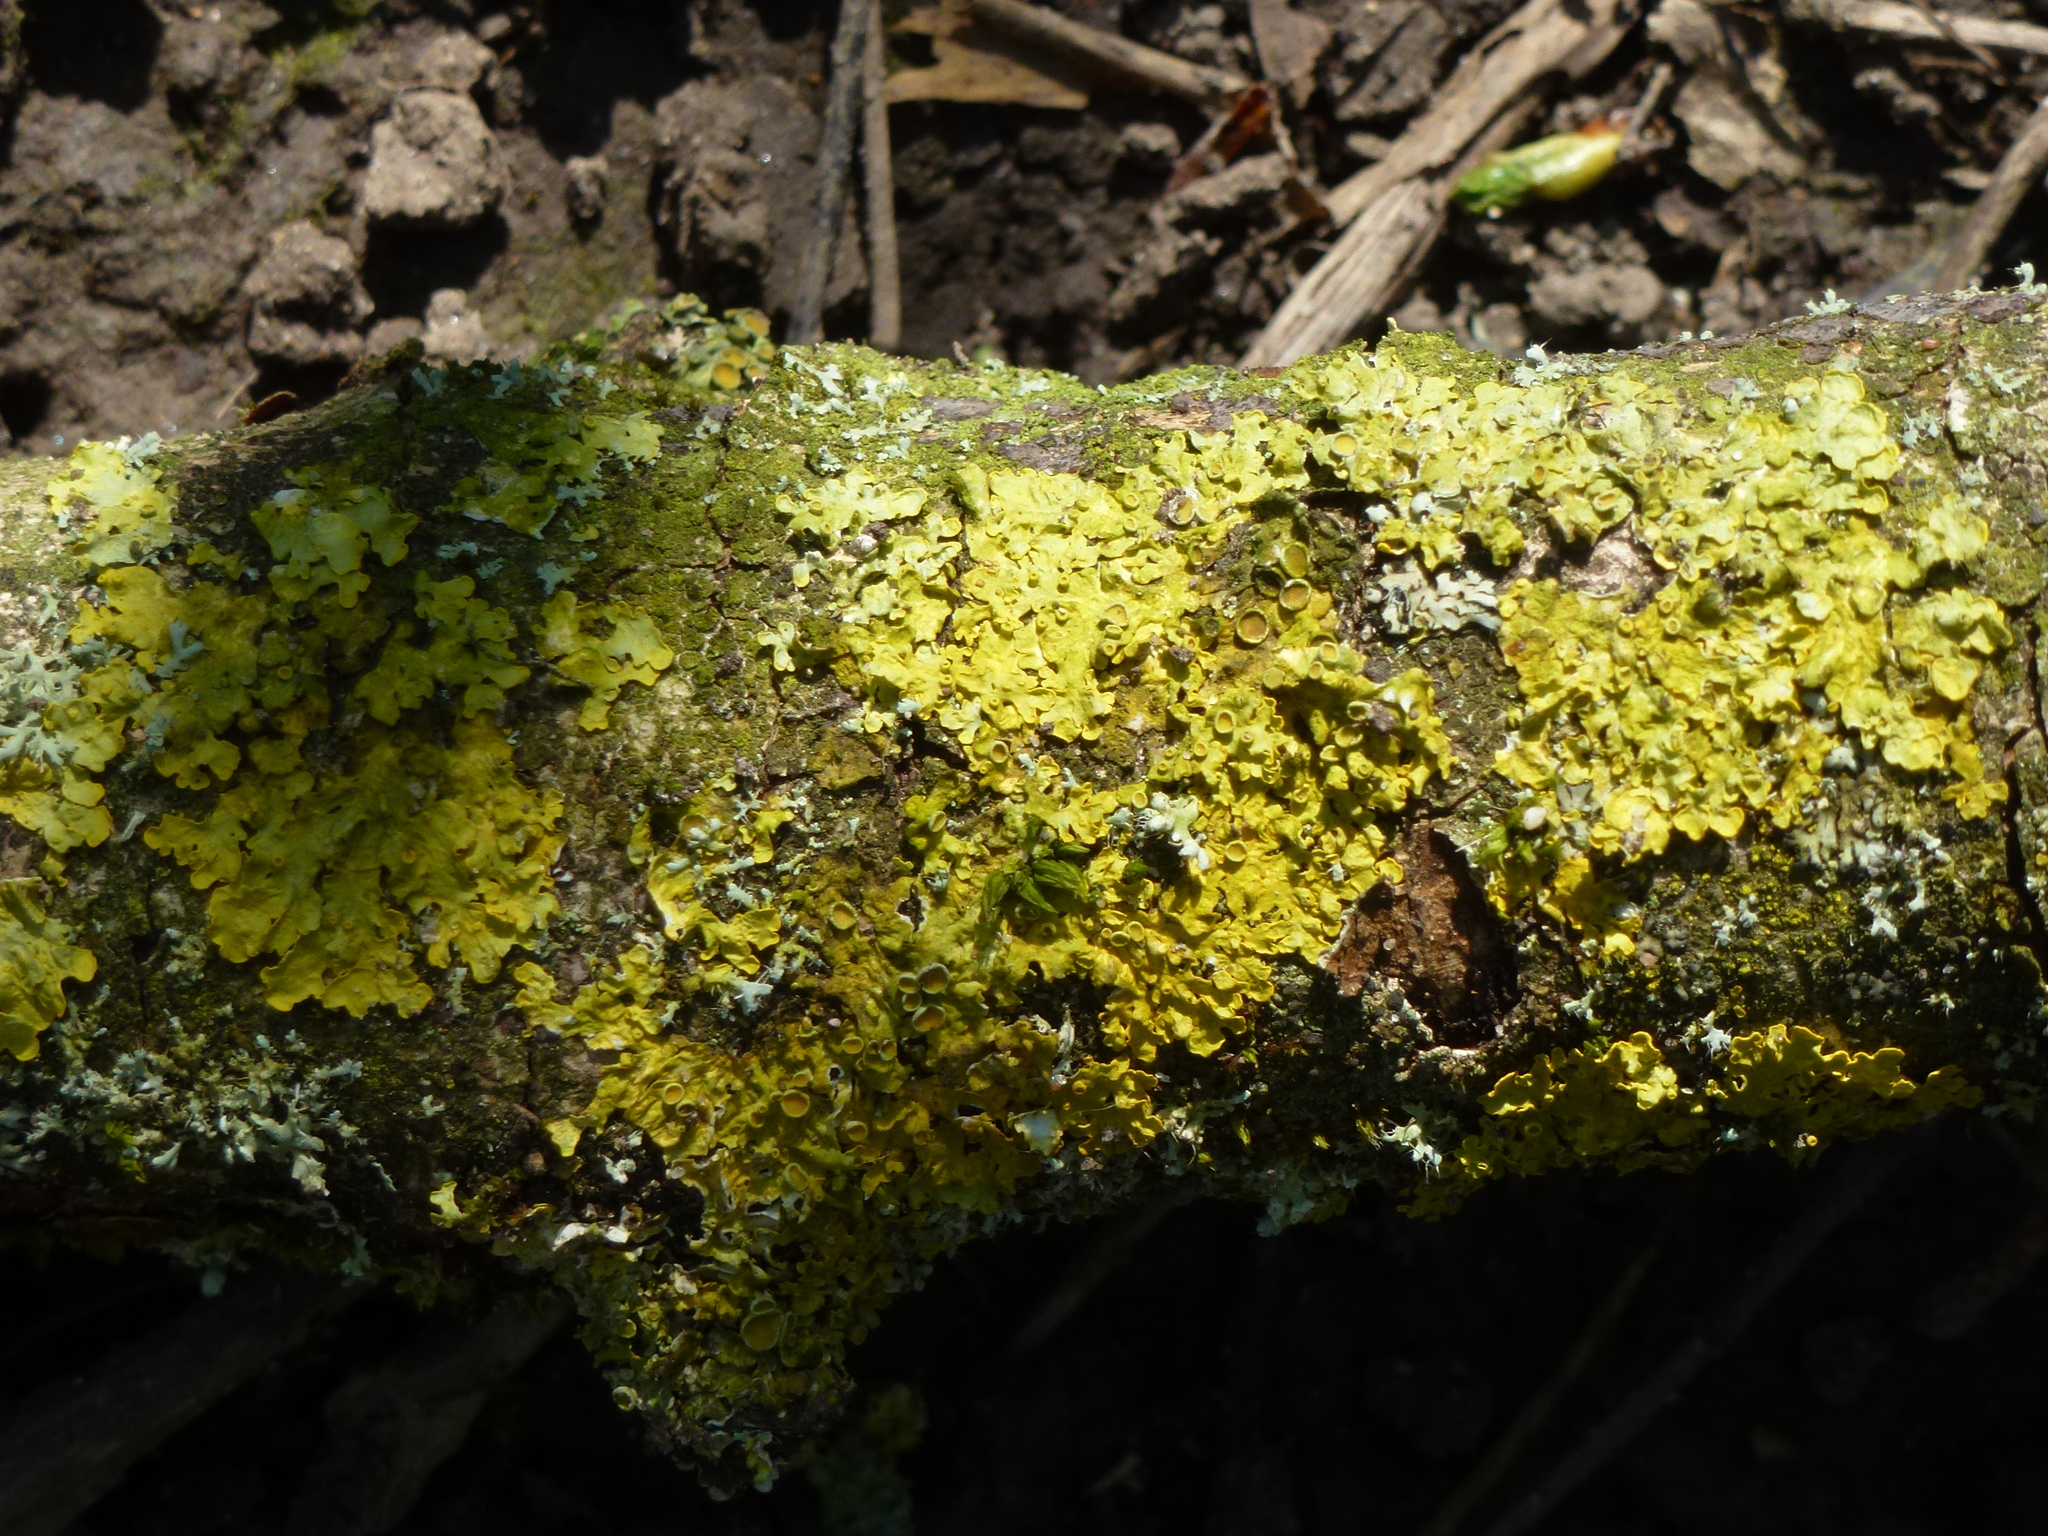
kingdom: Fungi
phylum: Ascomycota
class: Lecanoromycetes
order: Teloschistales
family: Teloschistaceae
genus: Xanthoria
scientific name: Xanthoria parietina
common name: Common orange lichen
